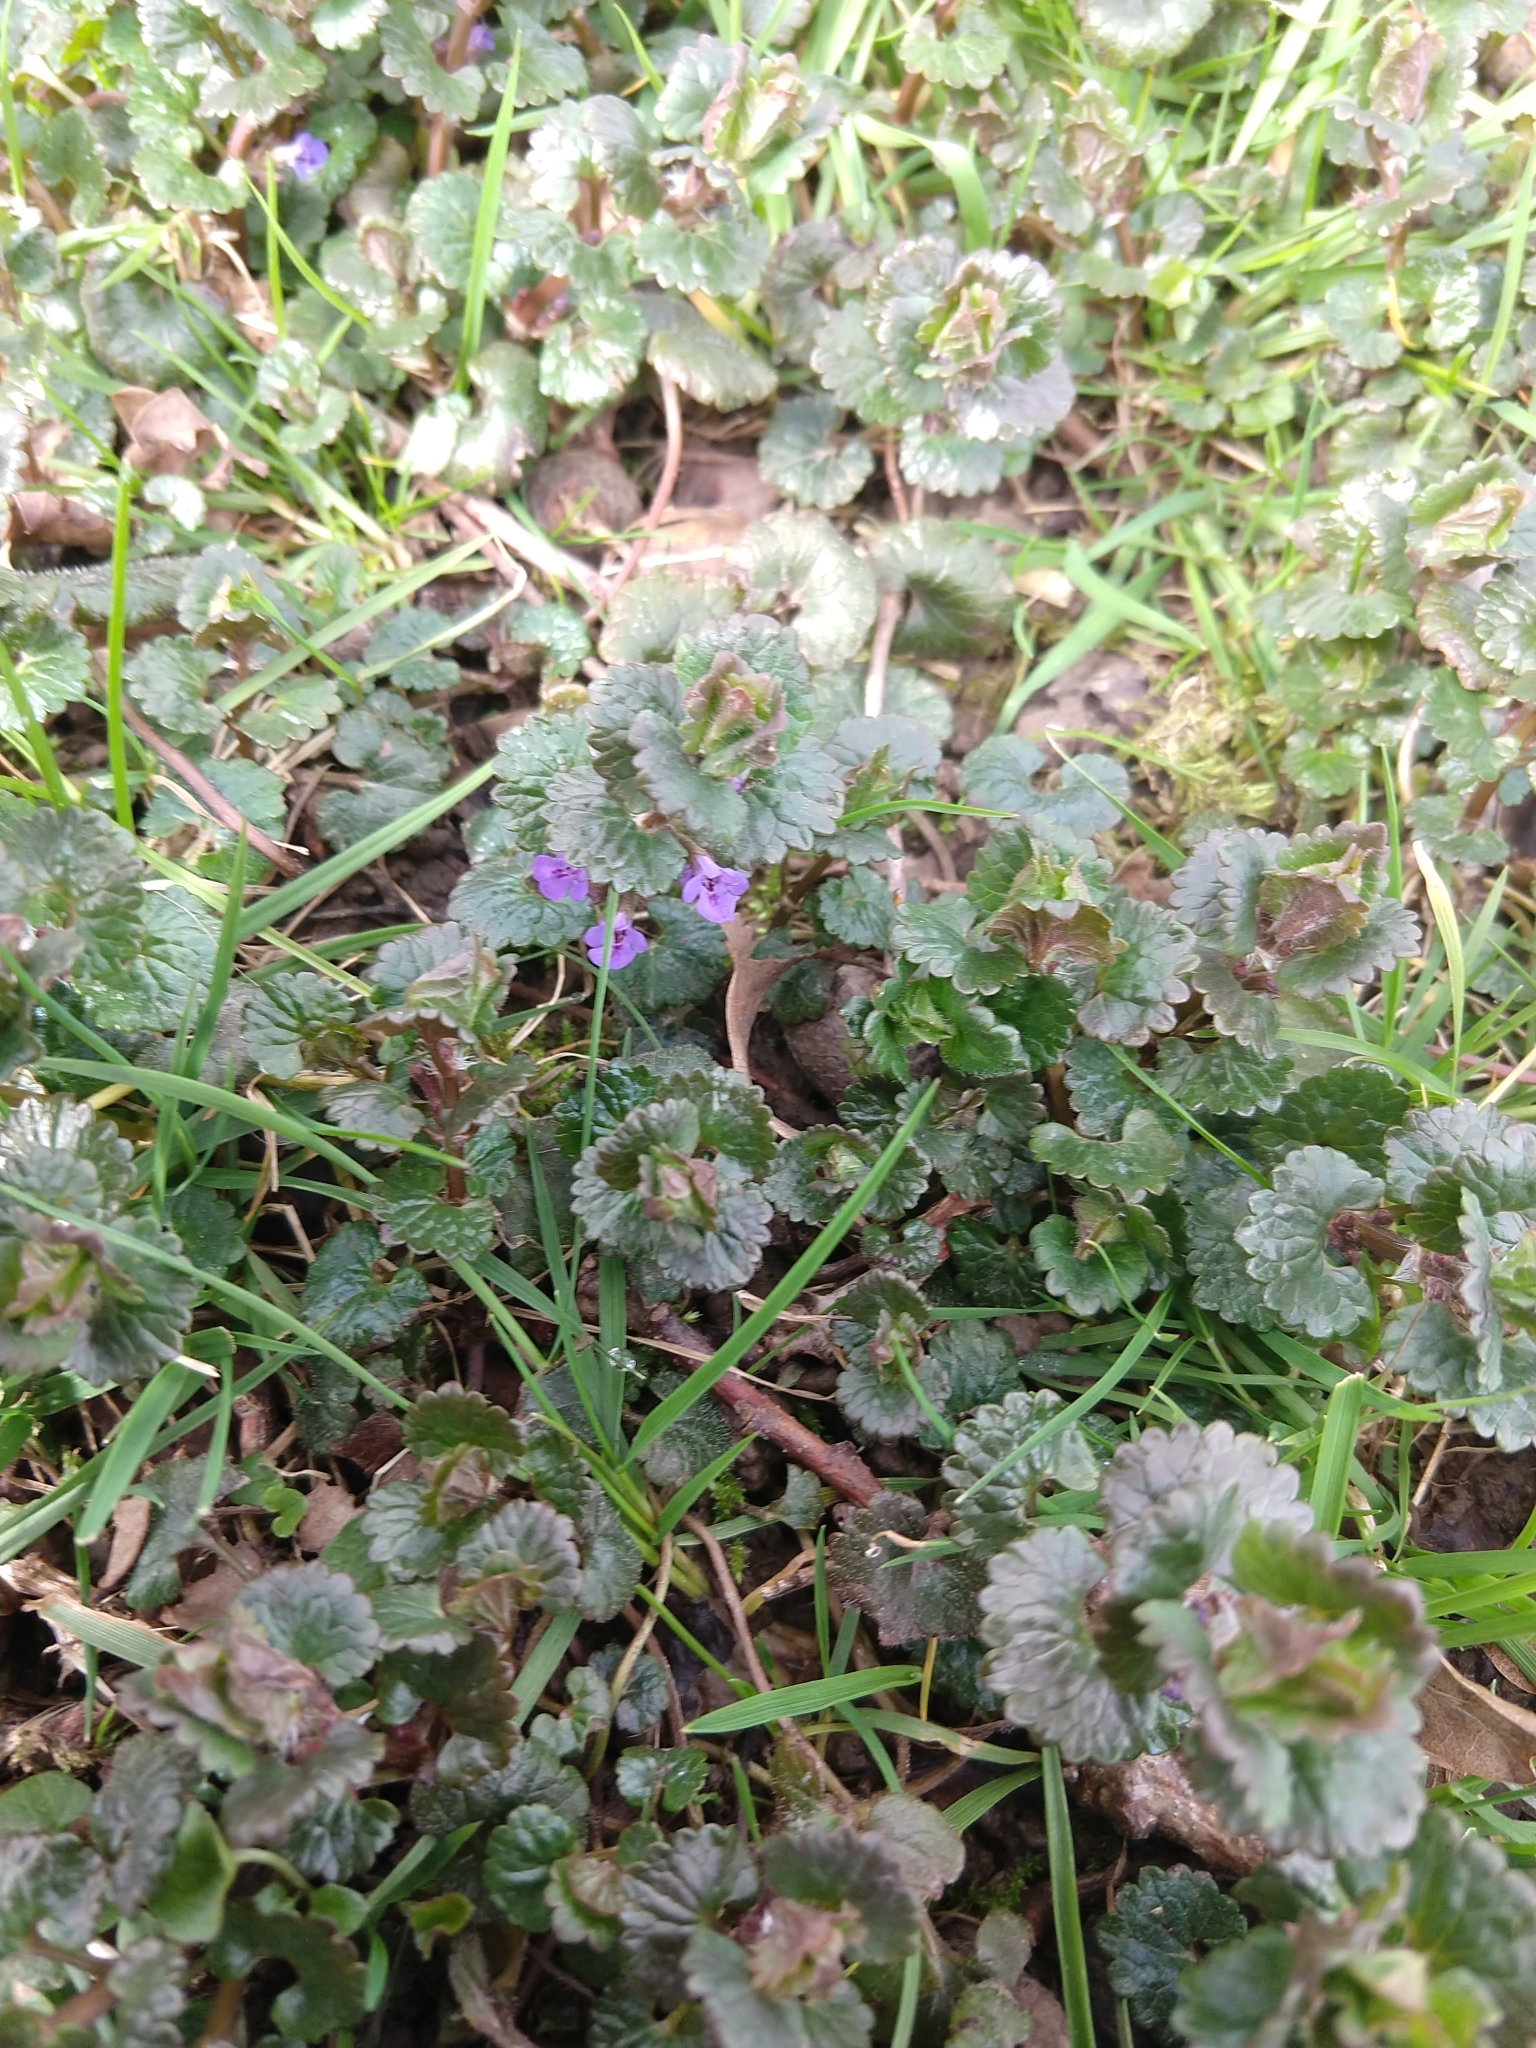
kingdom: Plantae
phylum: Tracheophyta
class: Magnoliopsida
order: Lamiales
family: Lamiaceae
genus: Glechoma
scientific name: Glechoma hederacea
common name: Ground ivy
